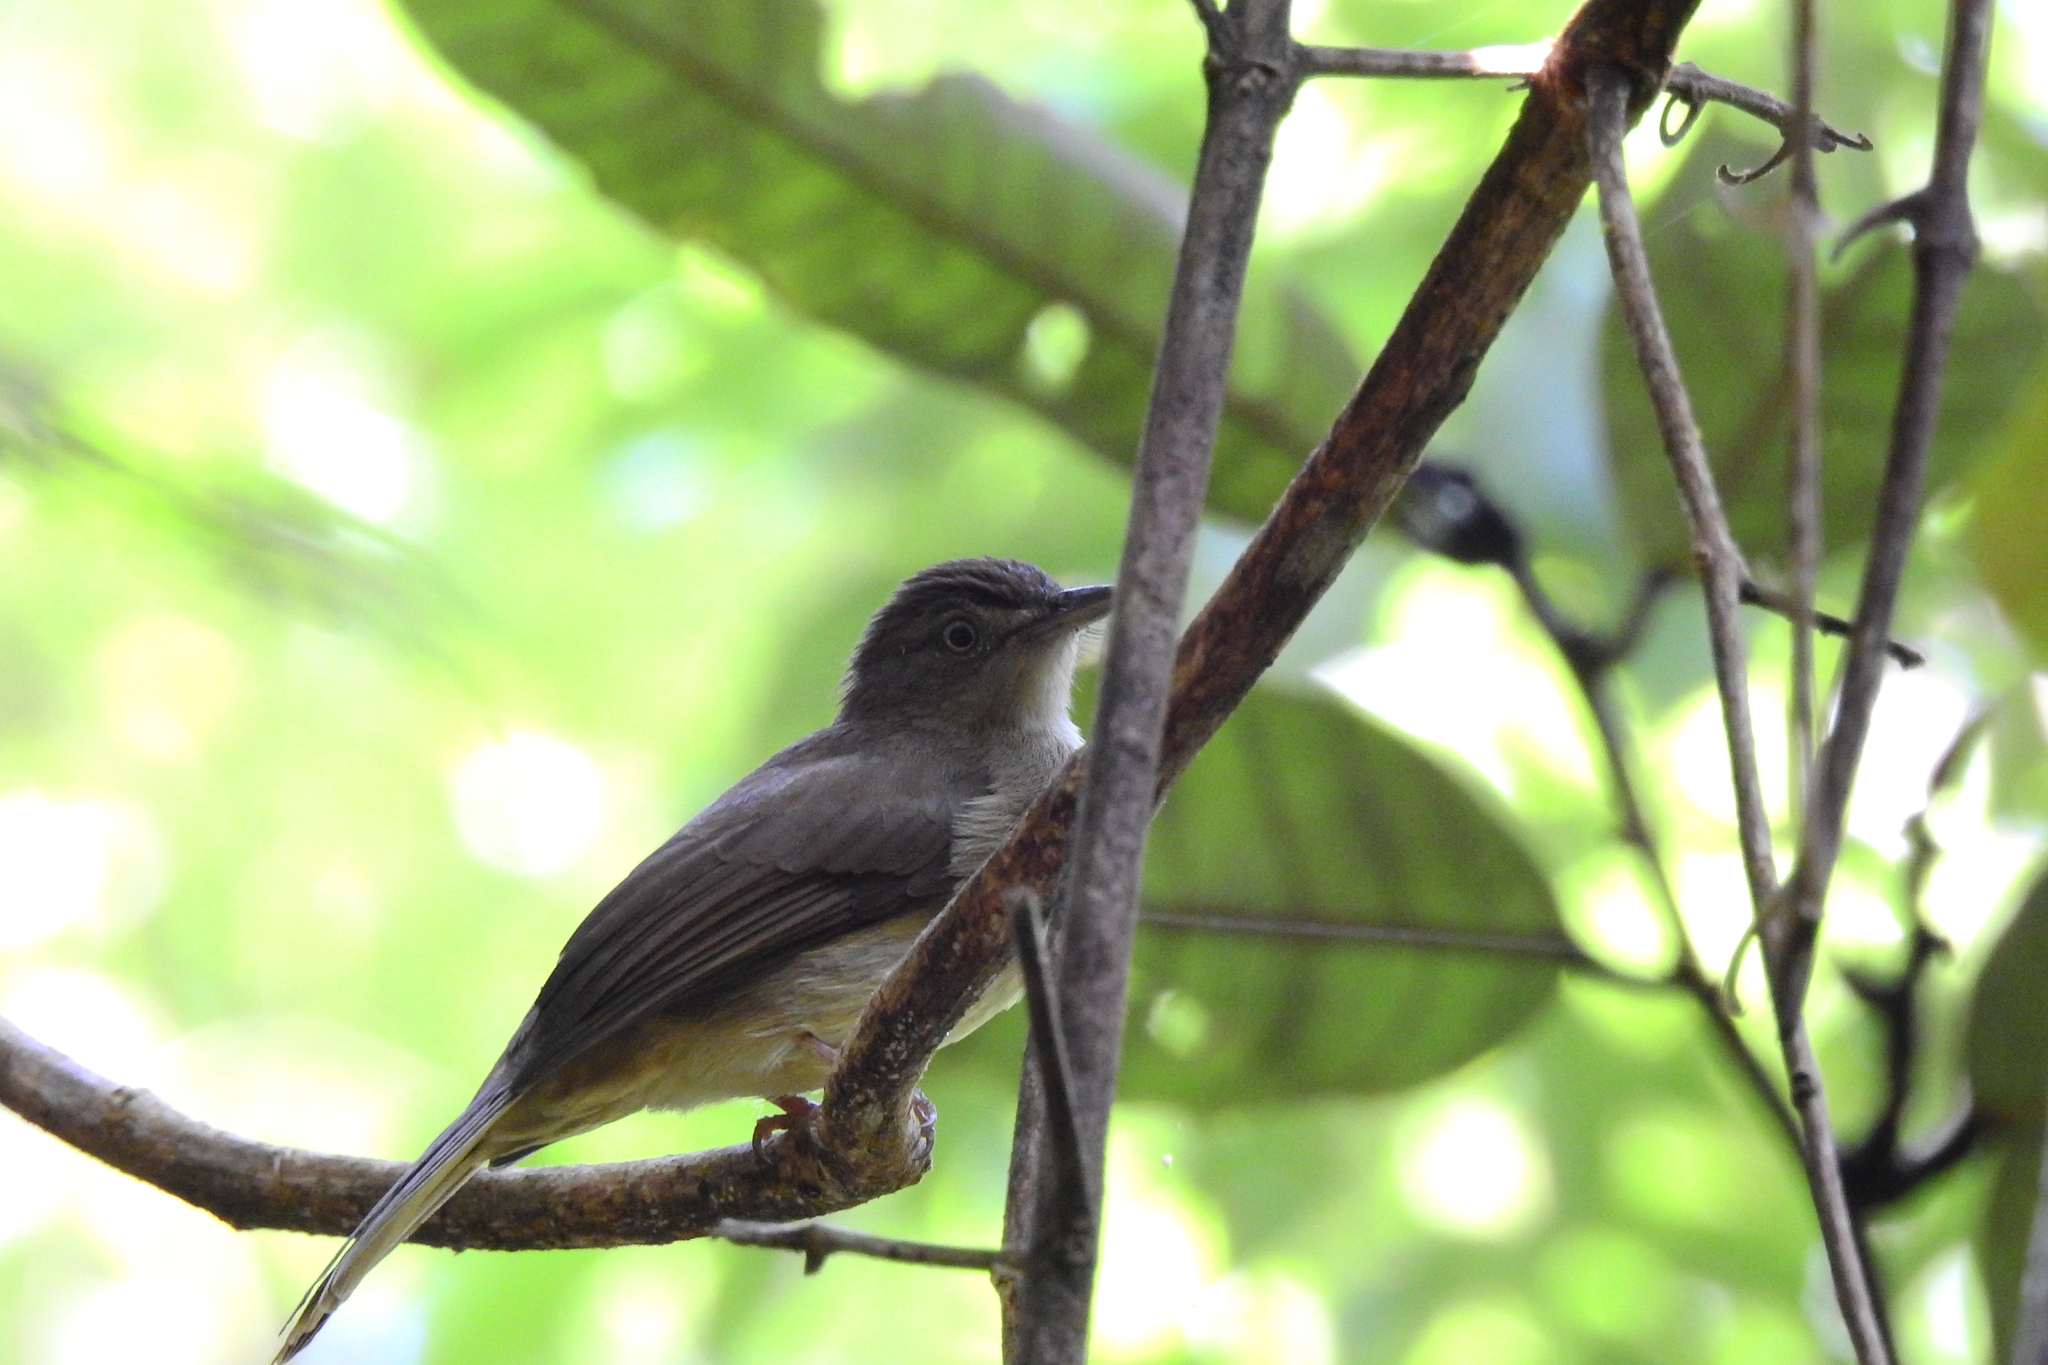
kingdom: Animalia
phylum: Chordata
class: Aves
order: Passeriformes
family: Pycnonotidae
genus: Iole
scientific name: Iole crypta
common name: Buff-vented bulbul
